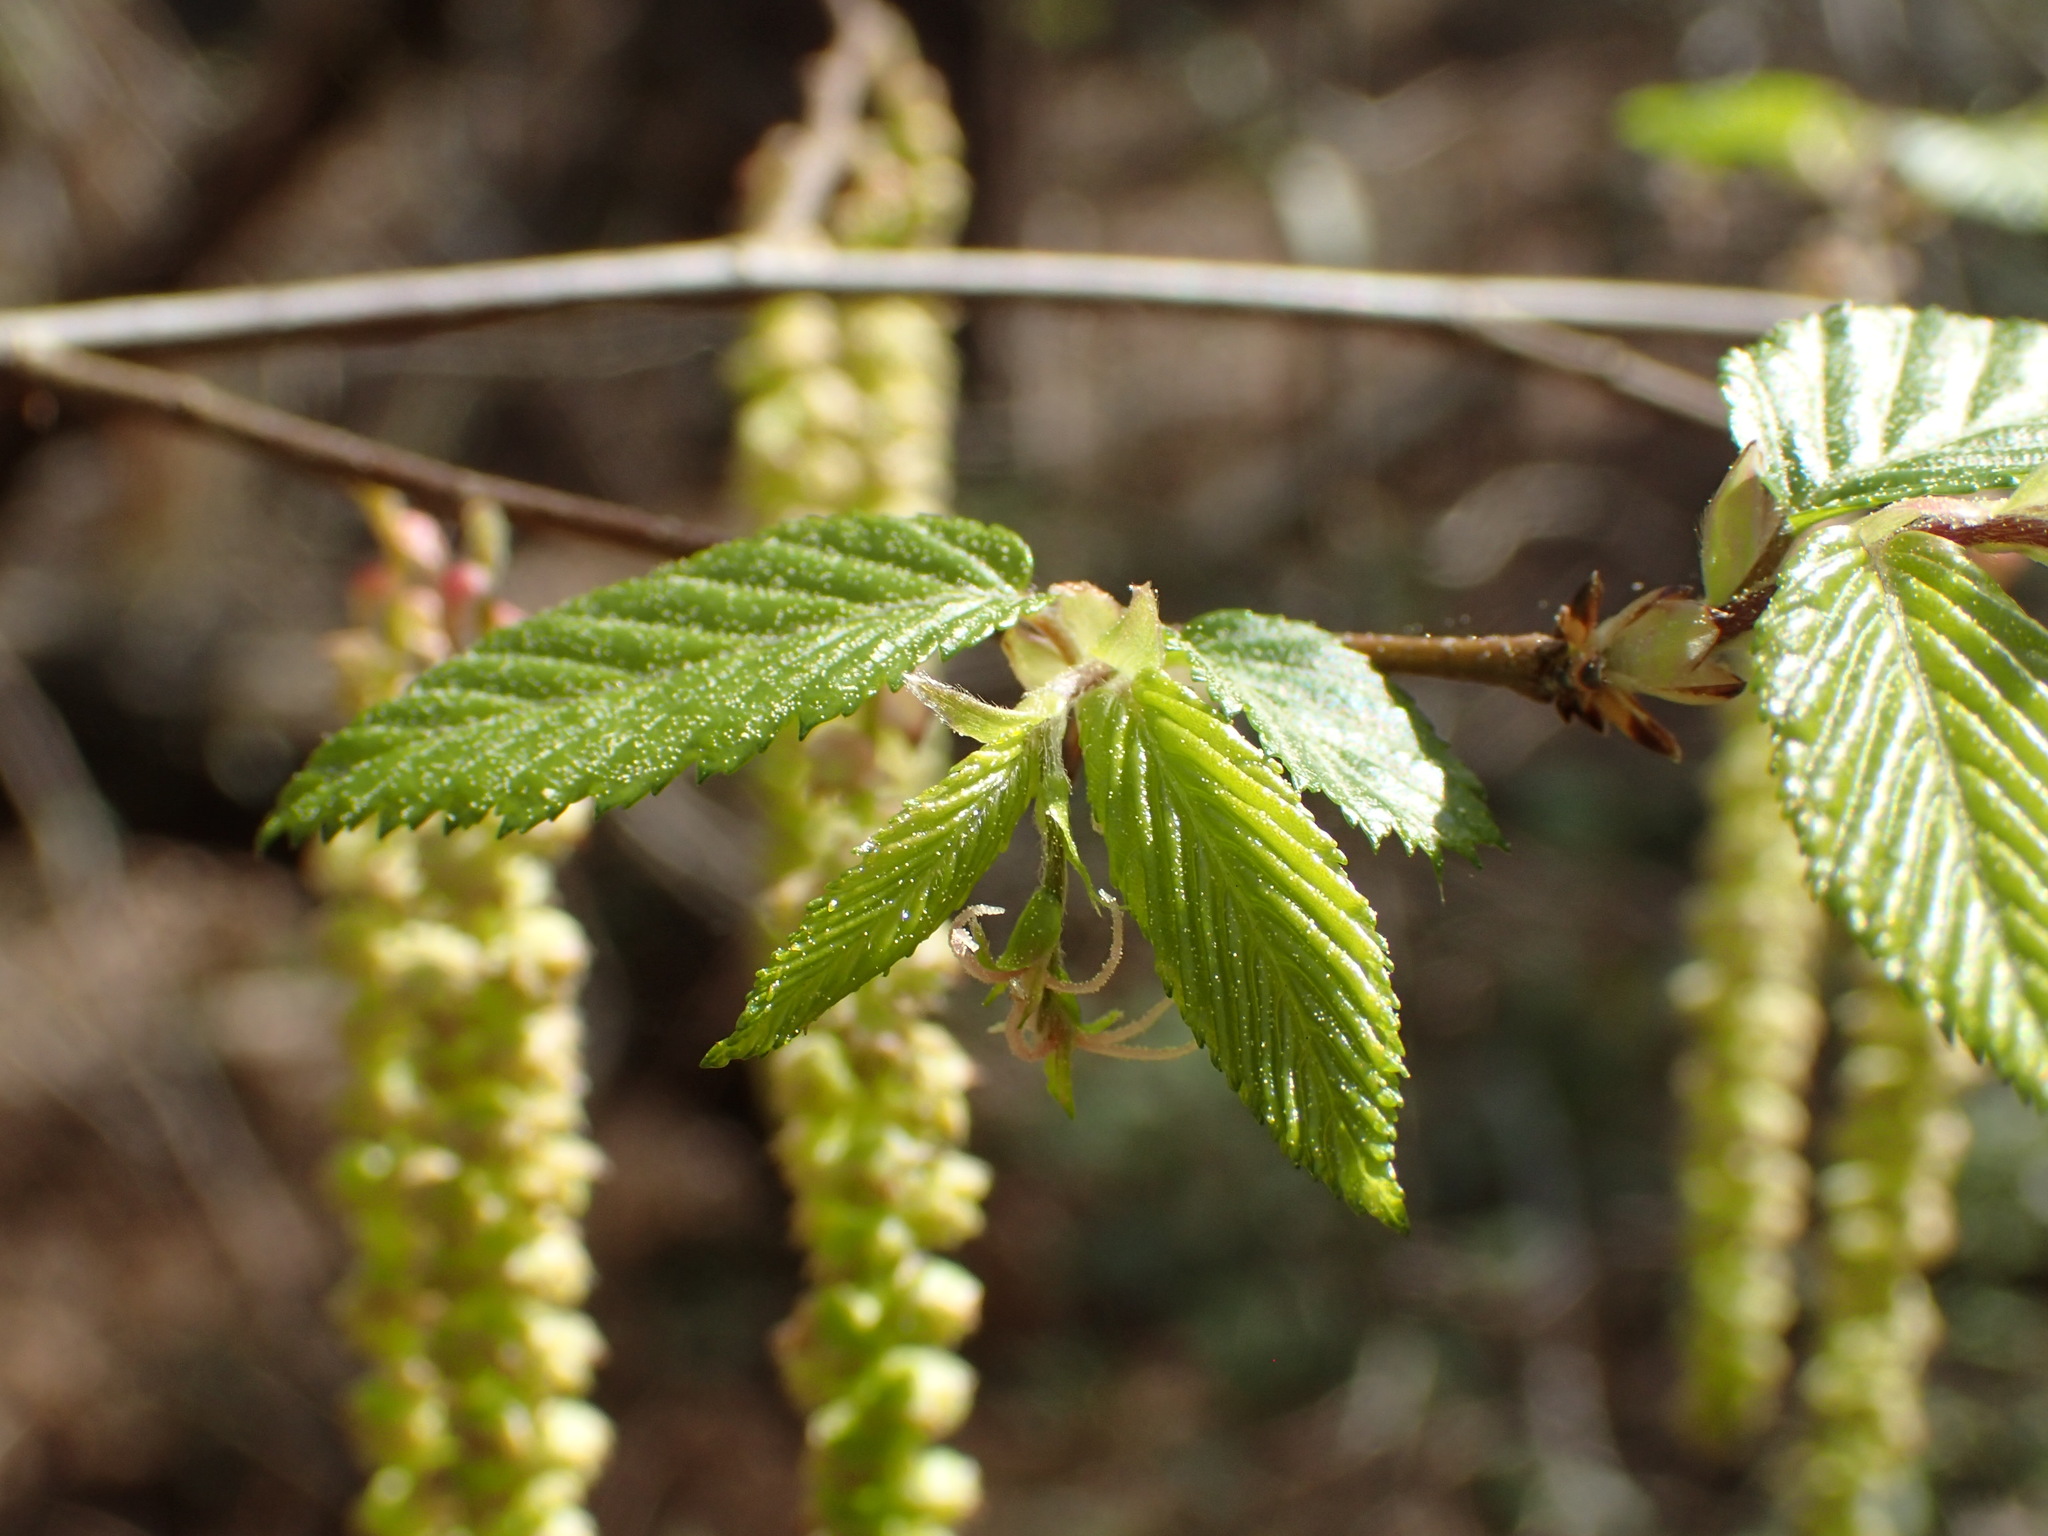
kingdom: Plantae
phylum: Tracheophyta
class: Magnoliopsida
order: Fagales
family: Betulaceae
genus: Ostrya
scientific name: Ostrya virginiana
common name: Ironwood
